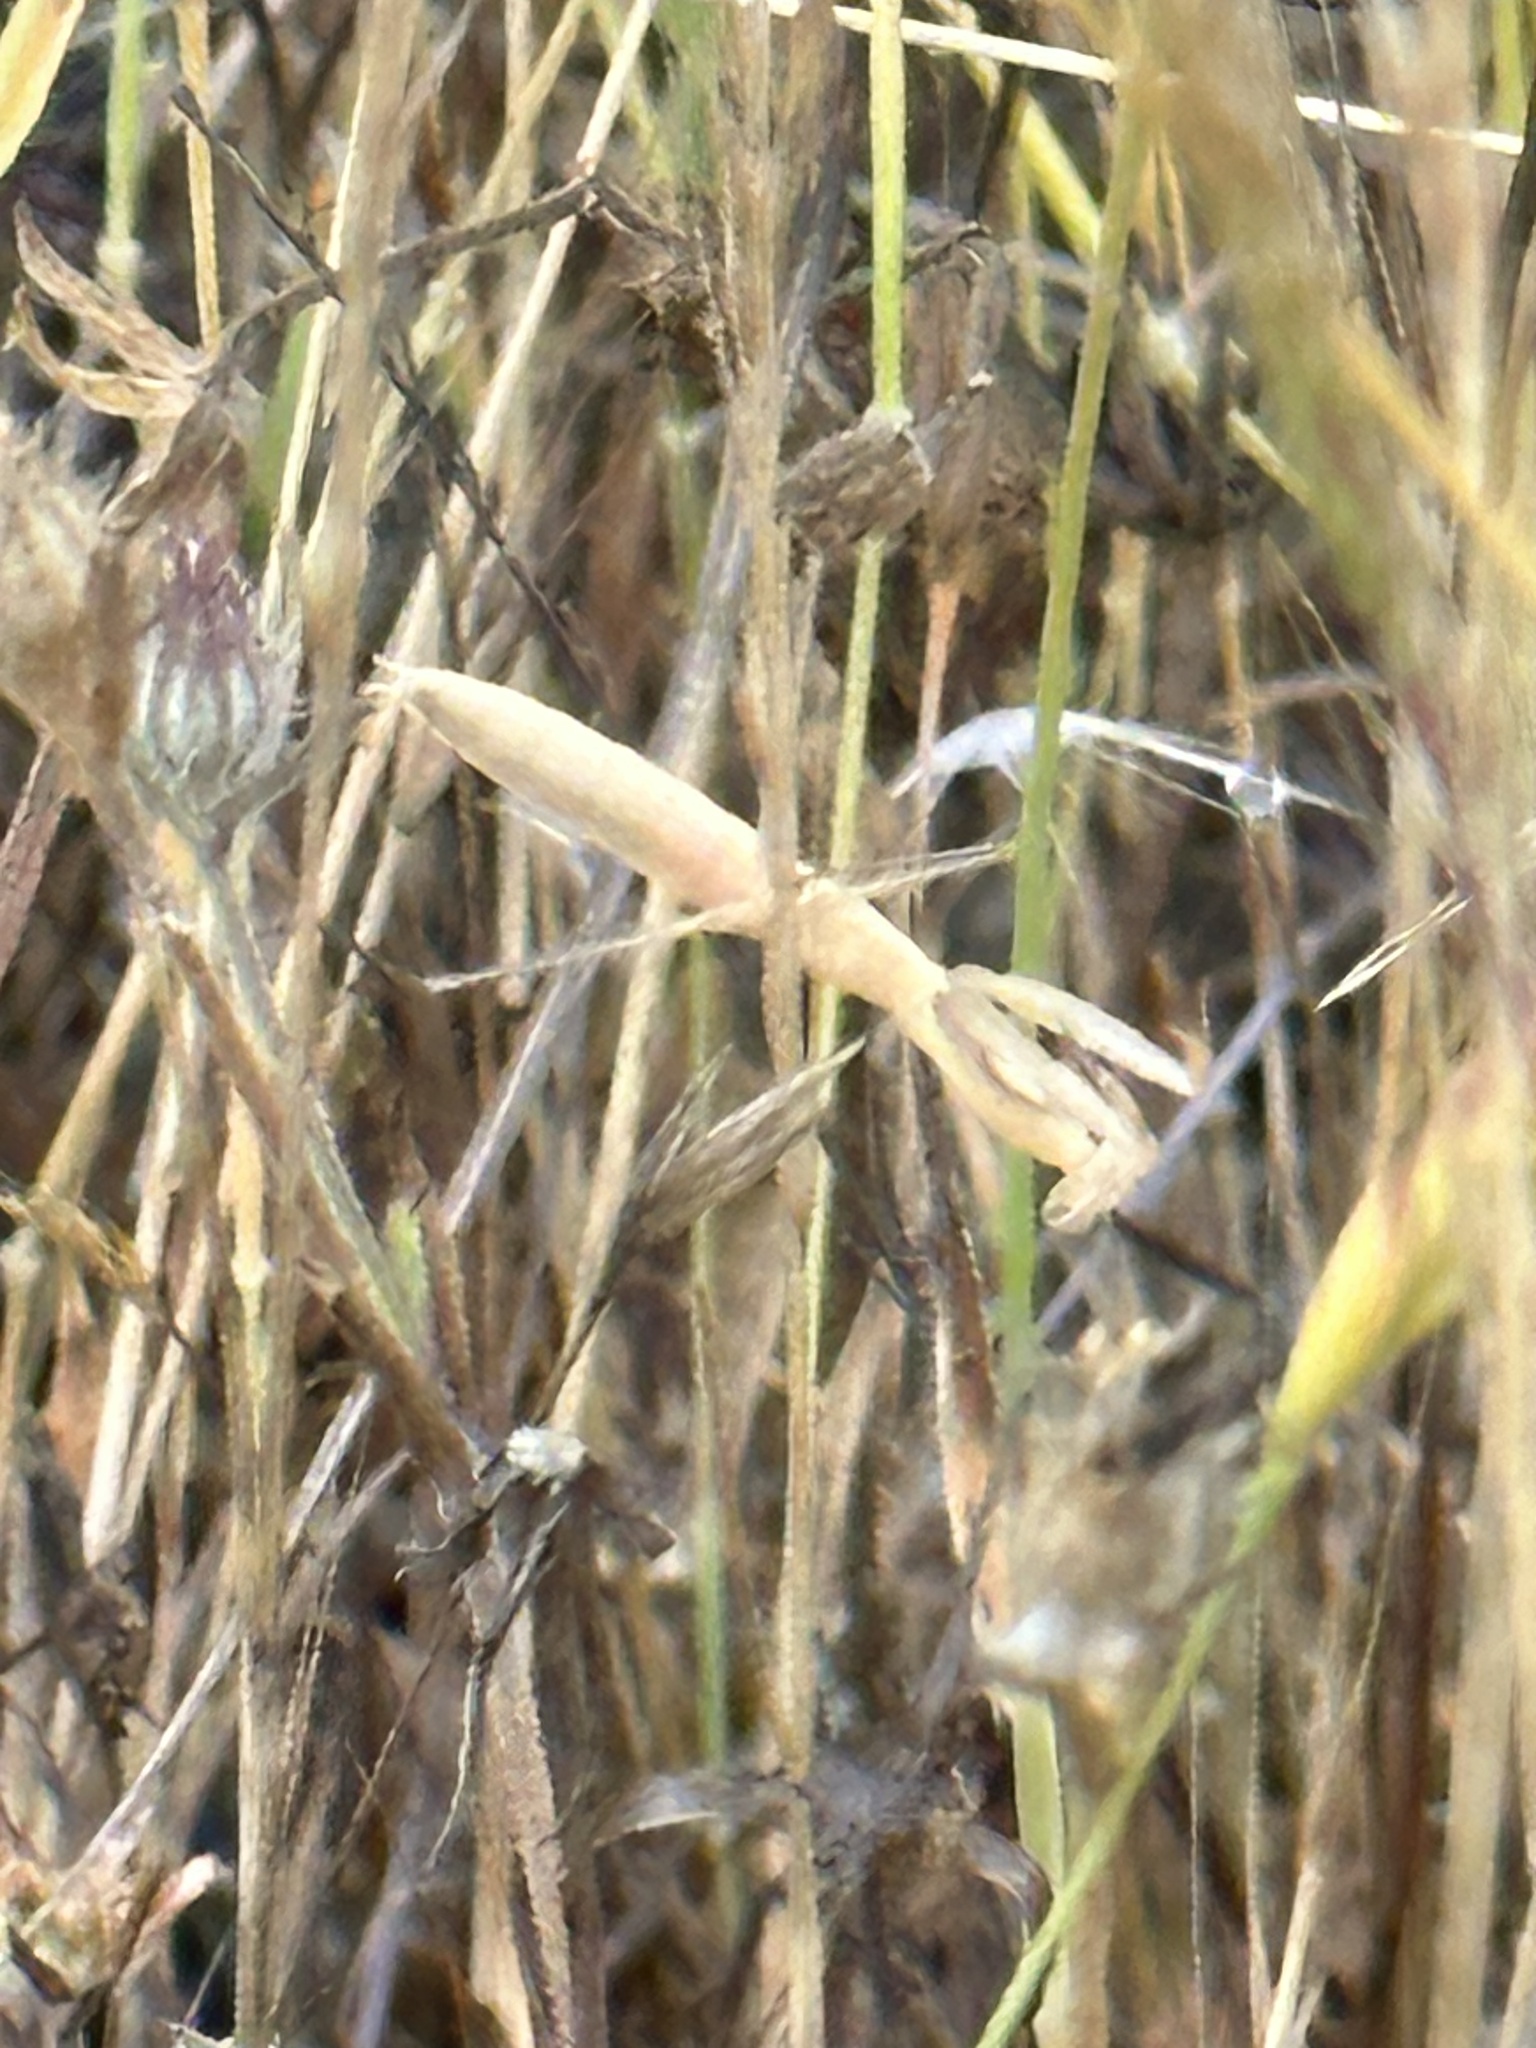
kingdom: Animalia
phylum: Arthropoda
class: Insecta
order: Mantodea
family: Mantidae
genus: Mantis
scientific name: Mantis religiosa
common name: Praying mantis
